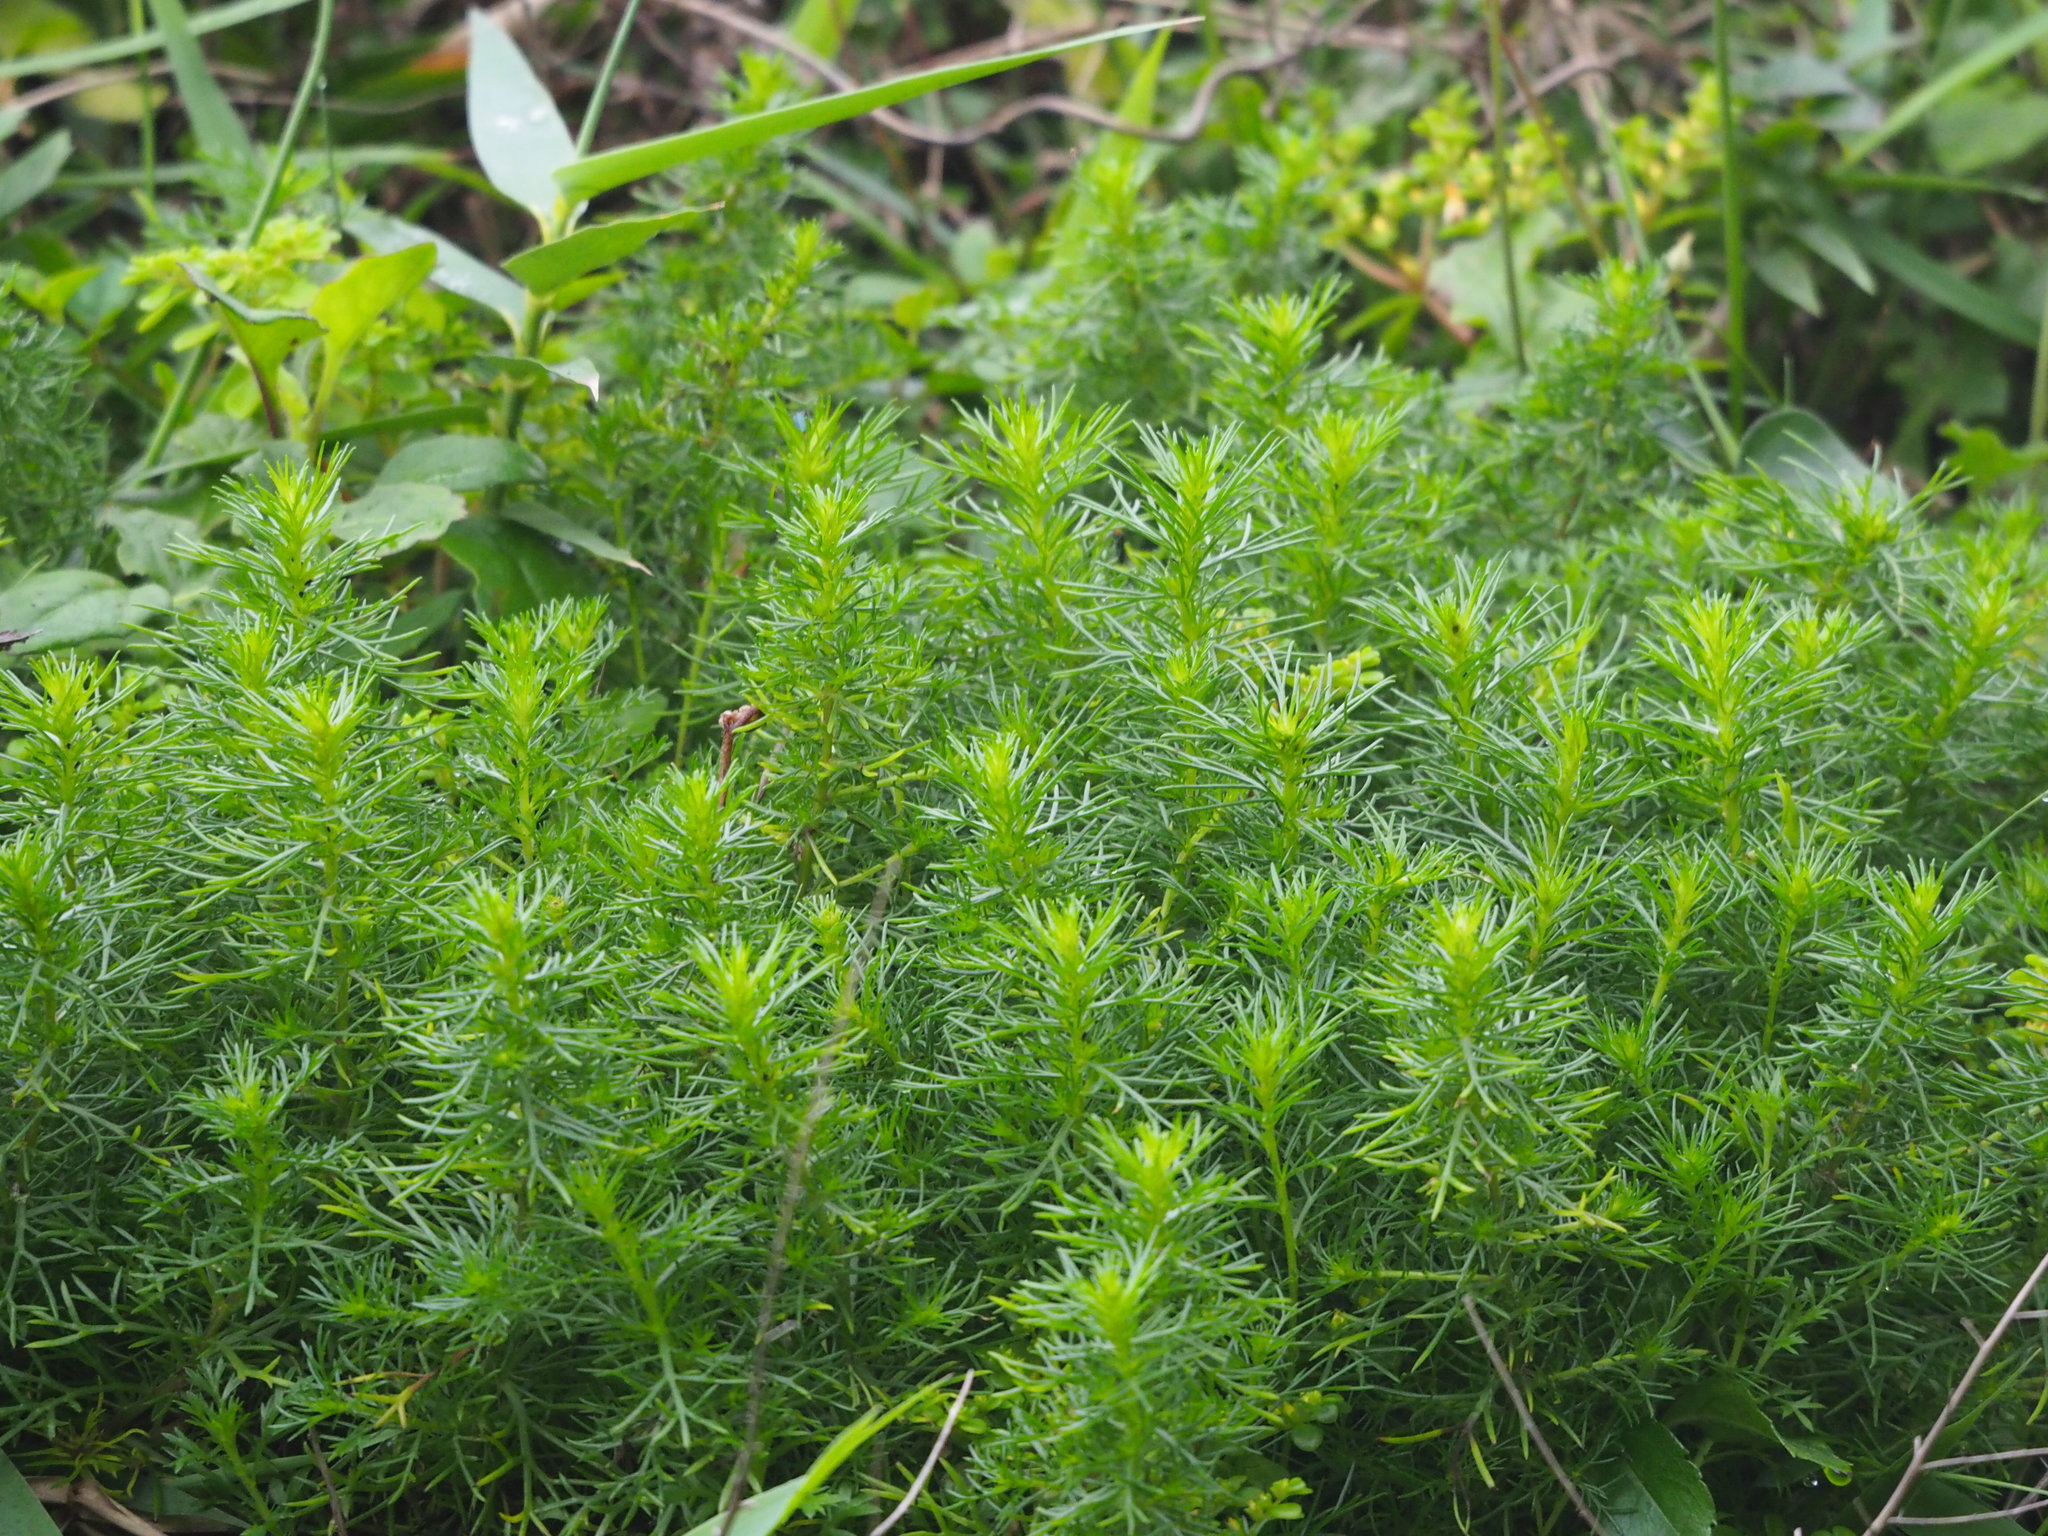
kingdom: Plantae
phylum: Tracheophyta
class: Magnoliopsida
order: Asterales
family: Asteraceae
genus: Artemisia
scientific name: Artemisia capillaris
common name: Yin-chen wormwood
